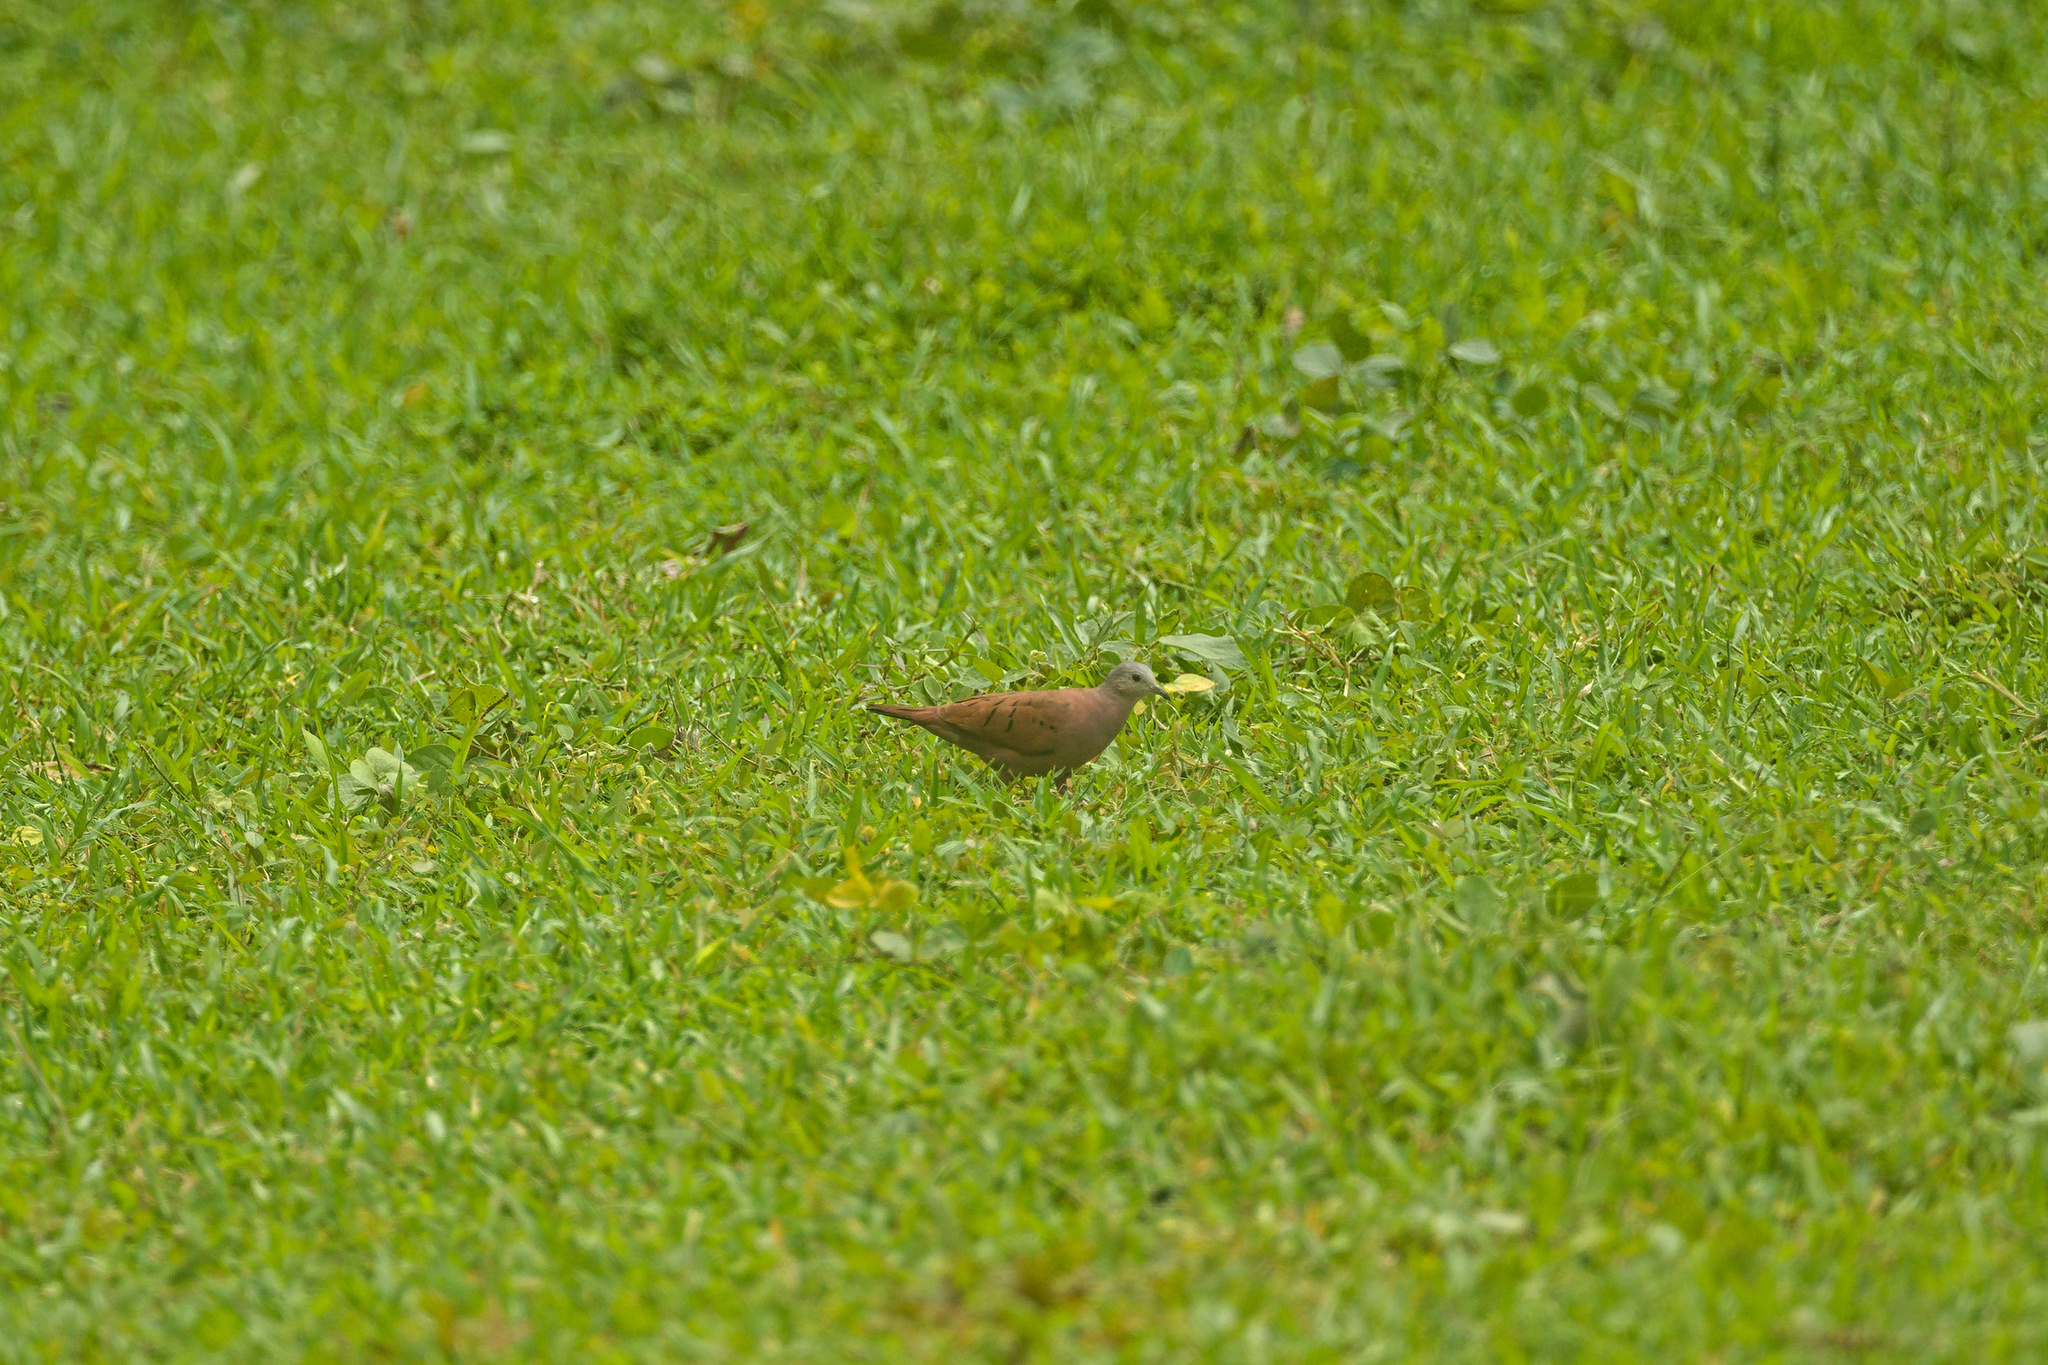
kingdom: Animalia
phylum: Chordata
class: Aves
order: Columbiformes
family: Columbidae
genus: Columbina
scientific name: Columbina talpacoti
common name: Ruddy ground dove
